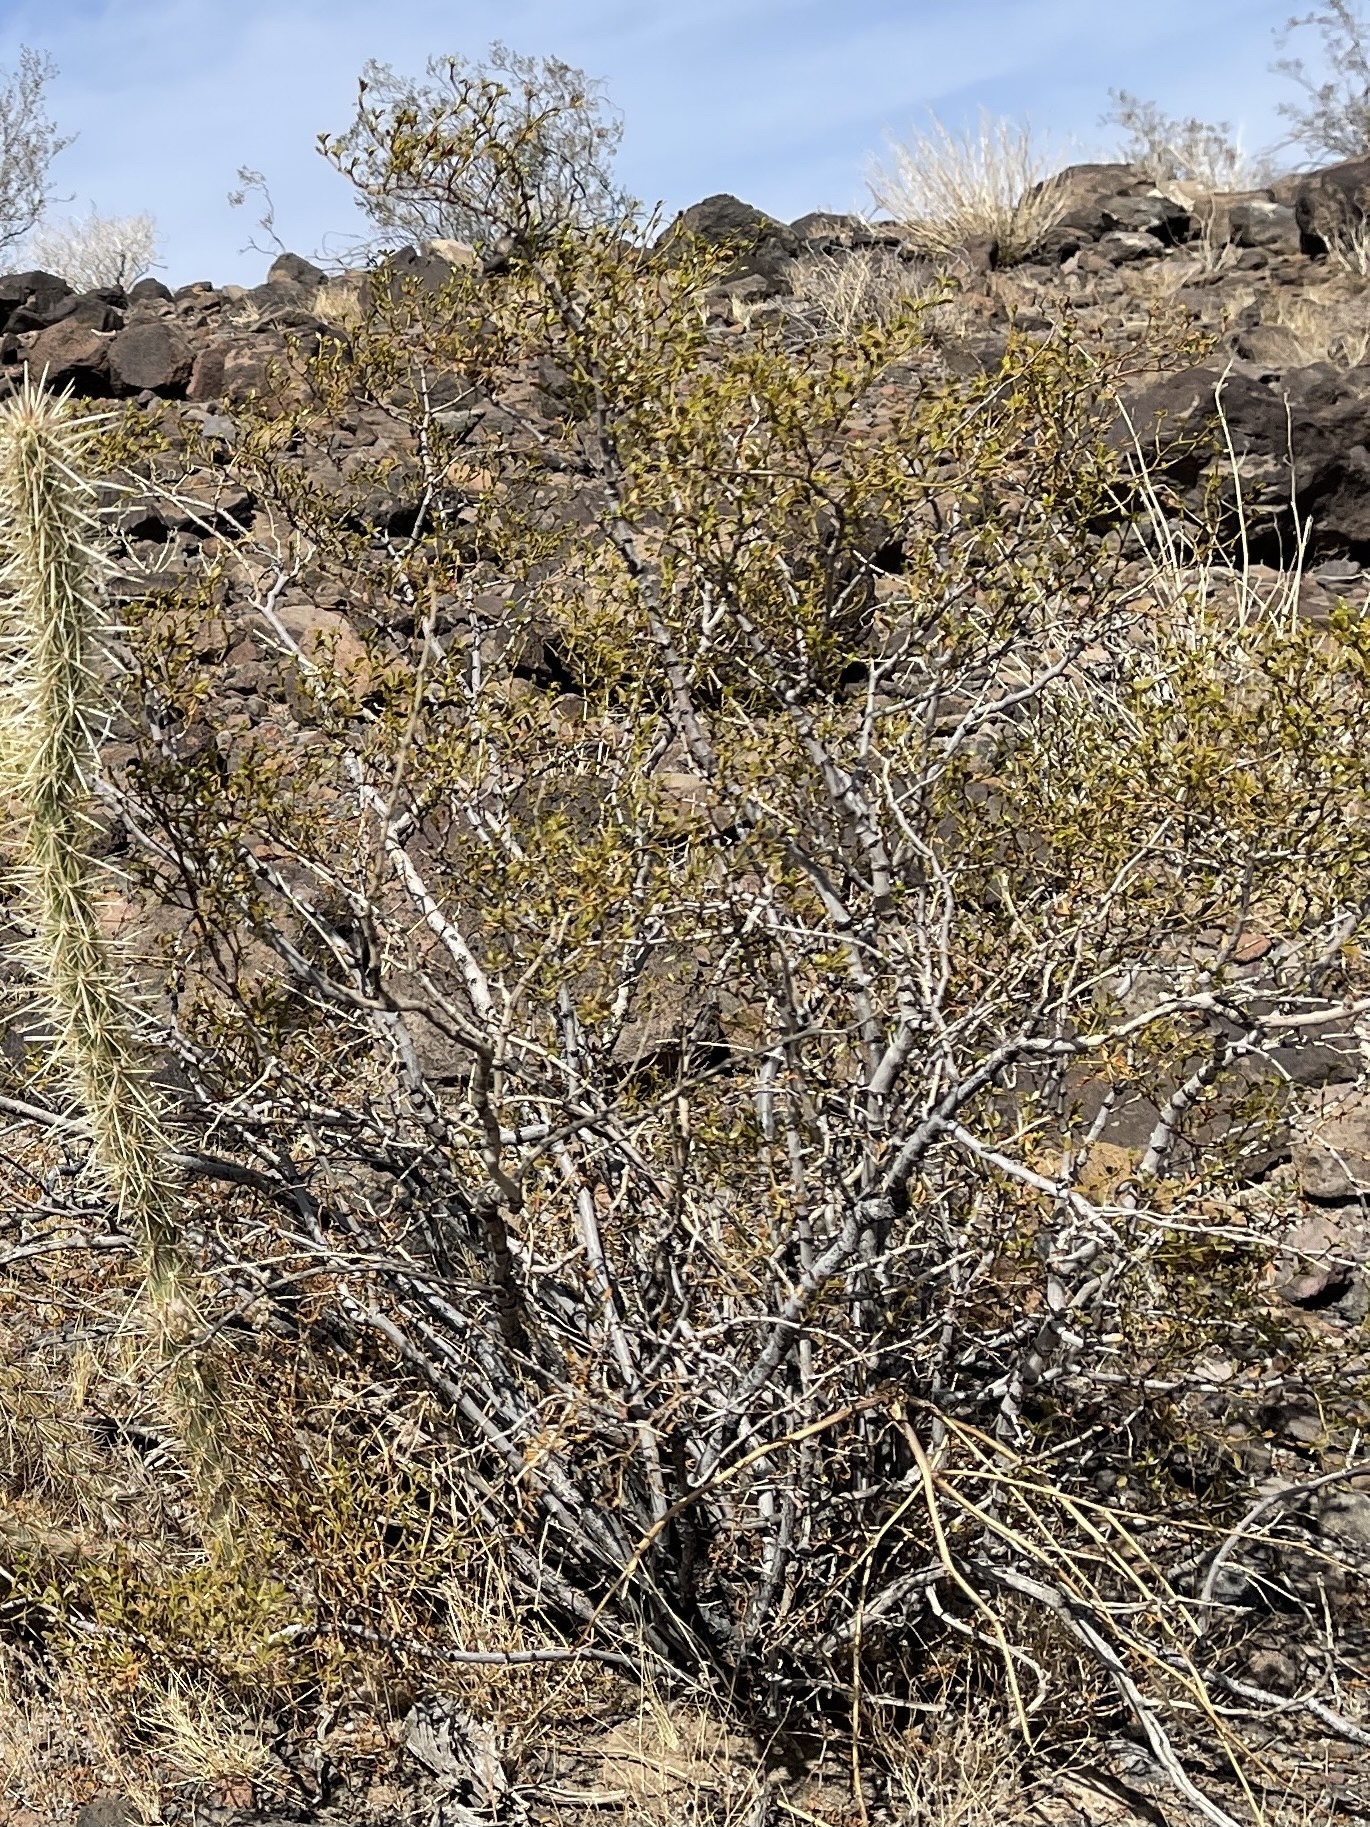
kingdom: Plantae
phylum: Tracheophyta
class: Magnoliopsida
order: Zygophyllales
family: Zygophyllaceae
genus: Larrea
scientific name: Larrea tridentata
